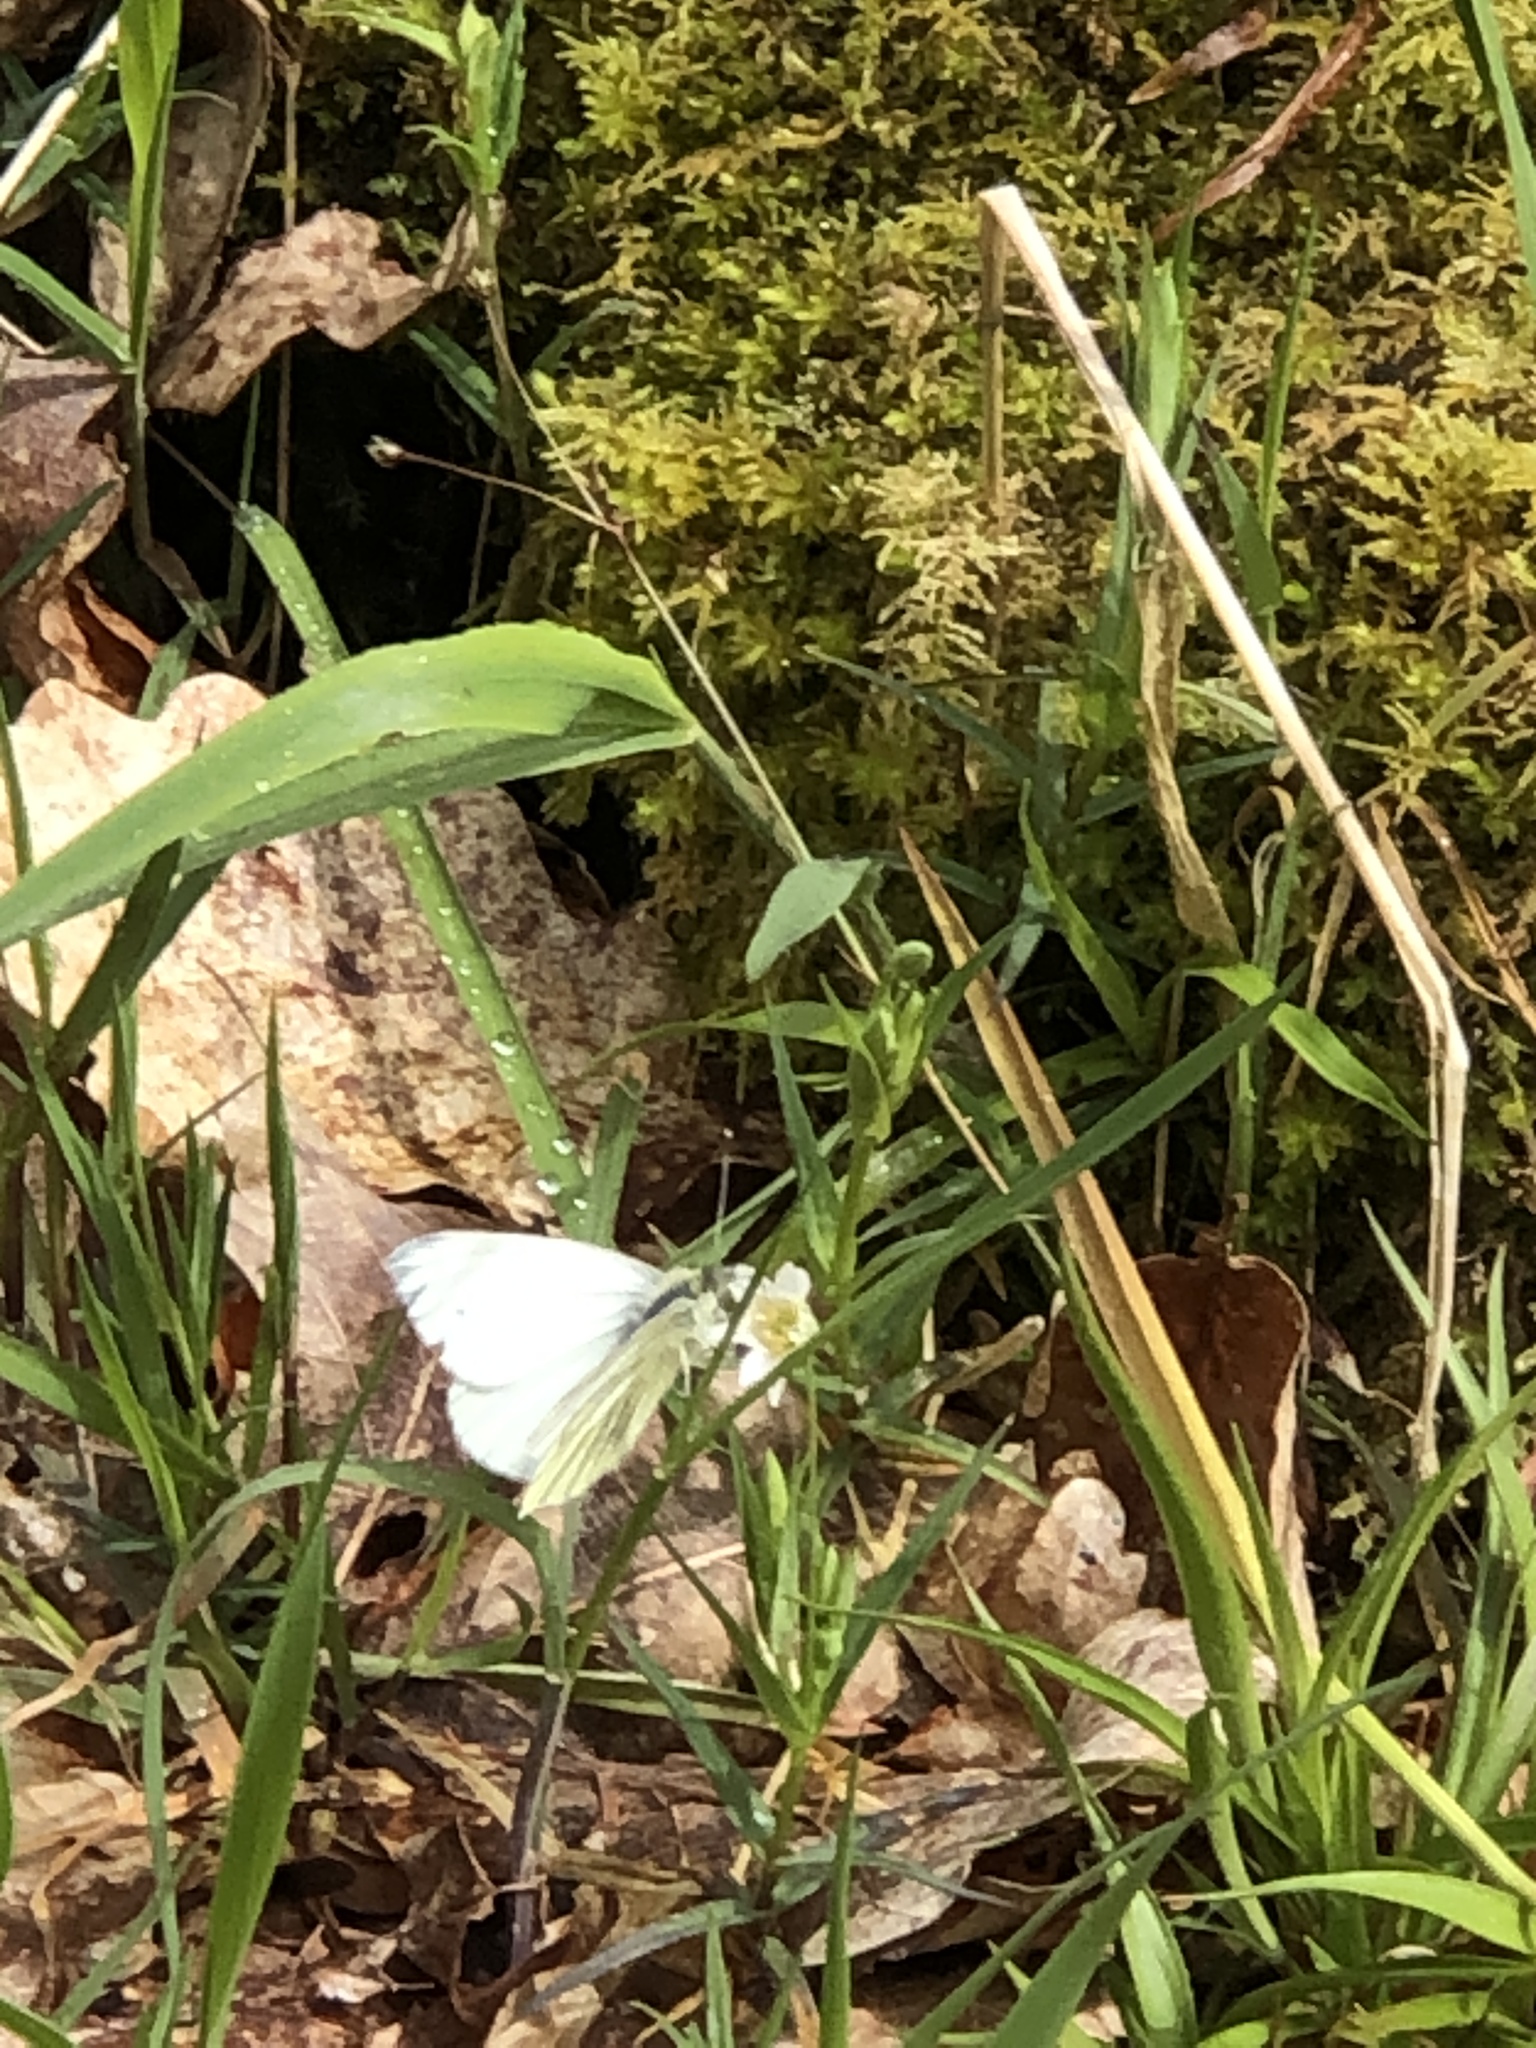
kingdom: Animalia
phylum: Arthropoda
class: Insecta
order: Lepidoptera
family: Pieridae
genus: Pieris
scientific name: Pieris napi
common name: Green-veined white
